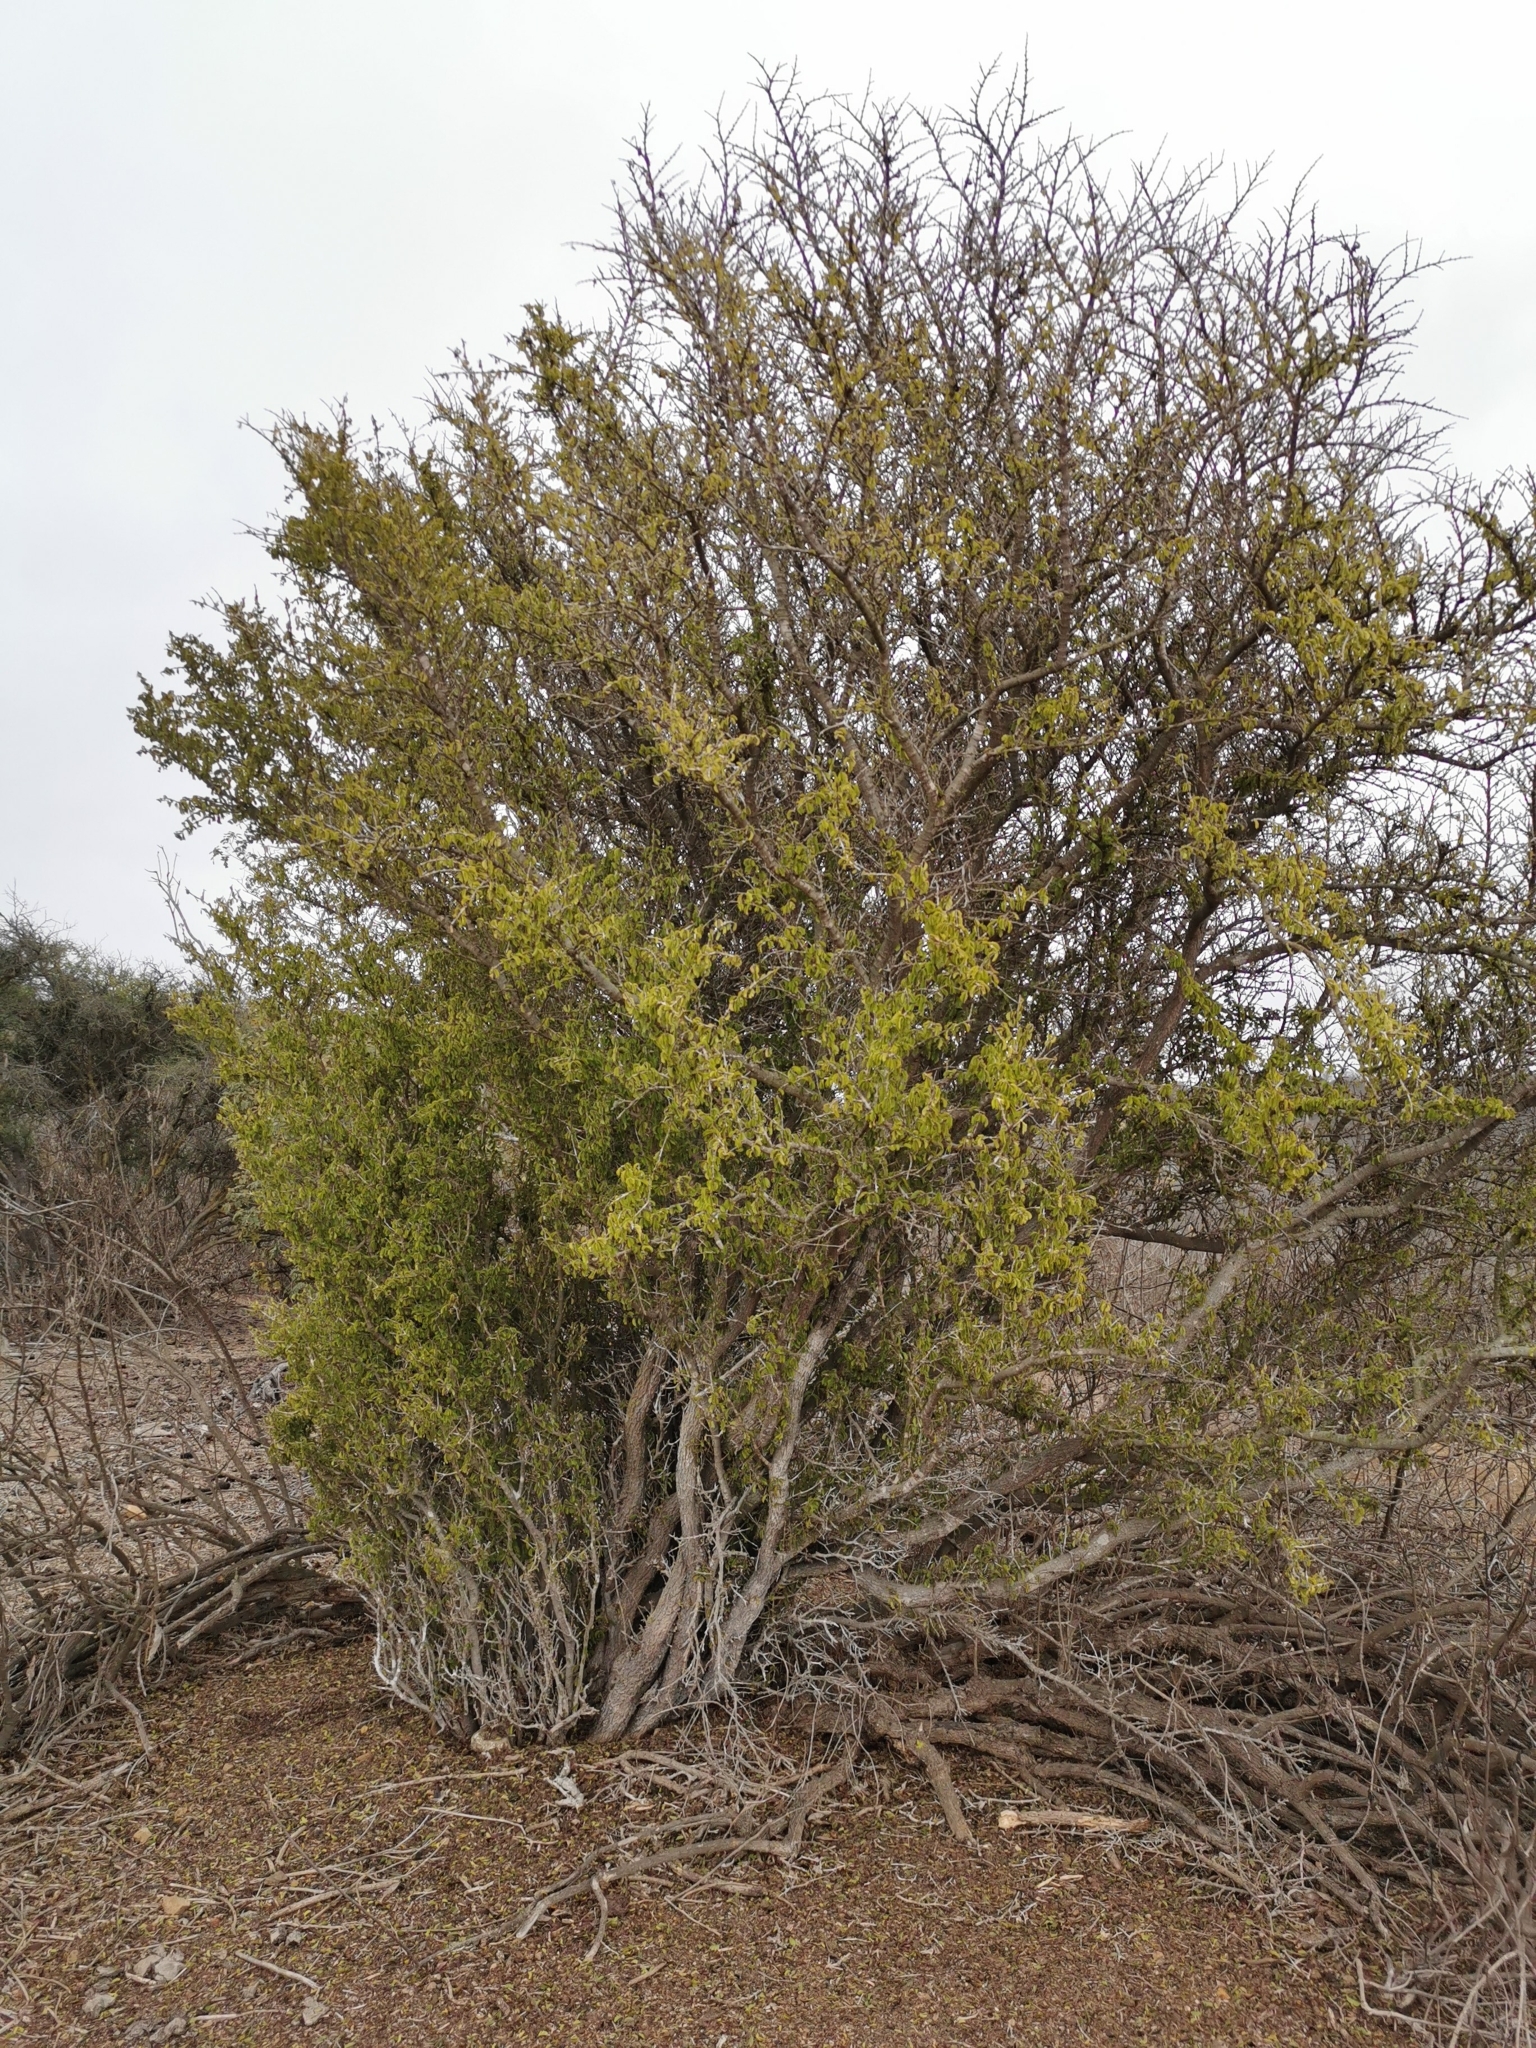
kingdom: Plantae
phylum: Tracheophyta
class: Magnoliopsida
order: Zygophyllales
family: Zygophyllaceae
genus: Porlieria
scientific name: Porlieria chilensis
